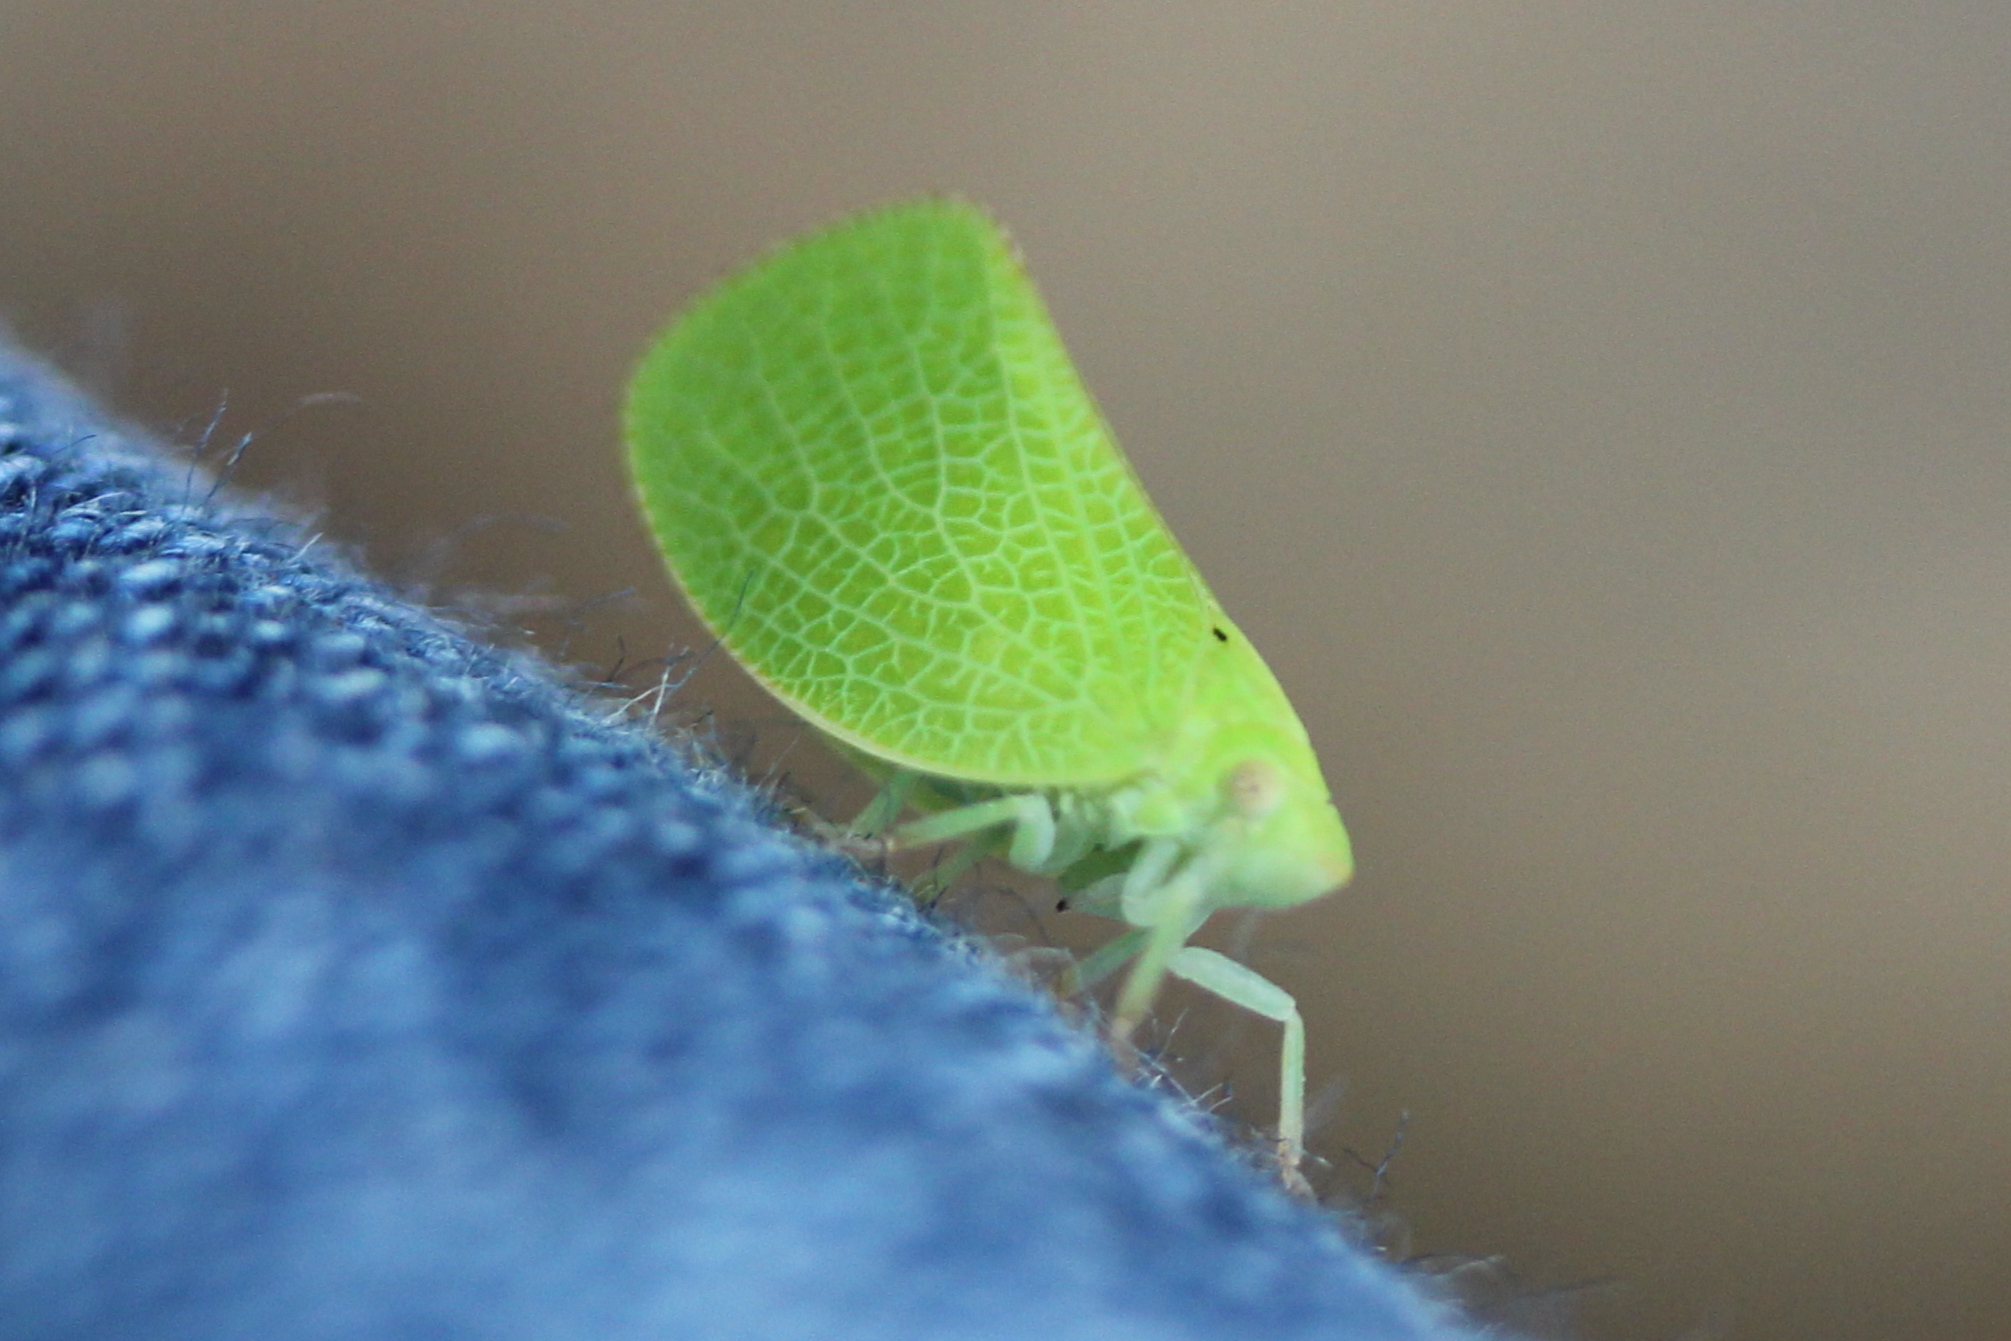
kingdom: Animalia
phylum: Arthropoda
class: Insecta
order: Hemiptera
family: Acanaloniidae
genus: Acanalonia
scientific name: Acanalonia conica
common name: Green cone-headed planthopper
